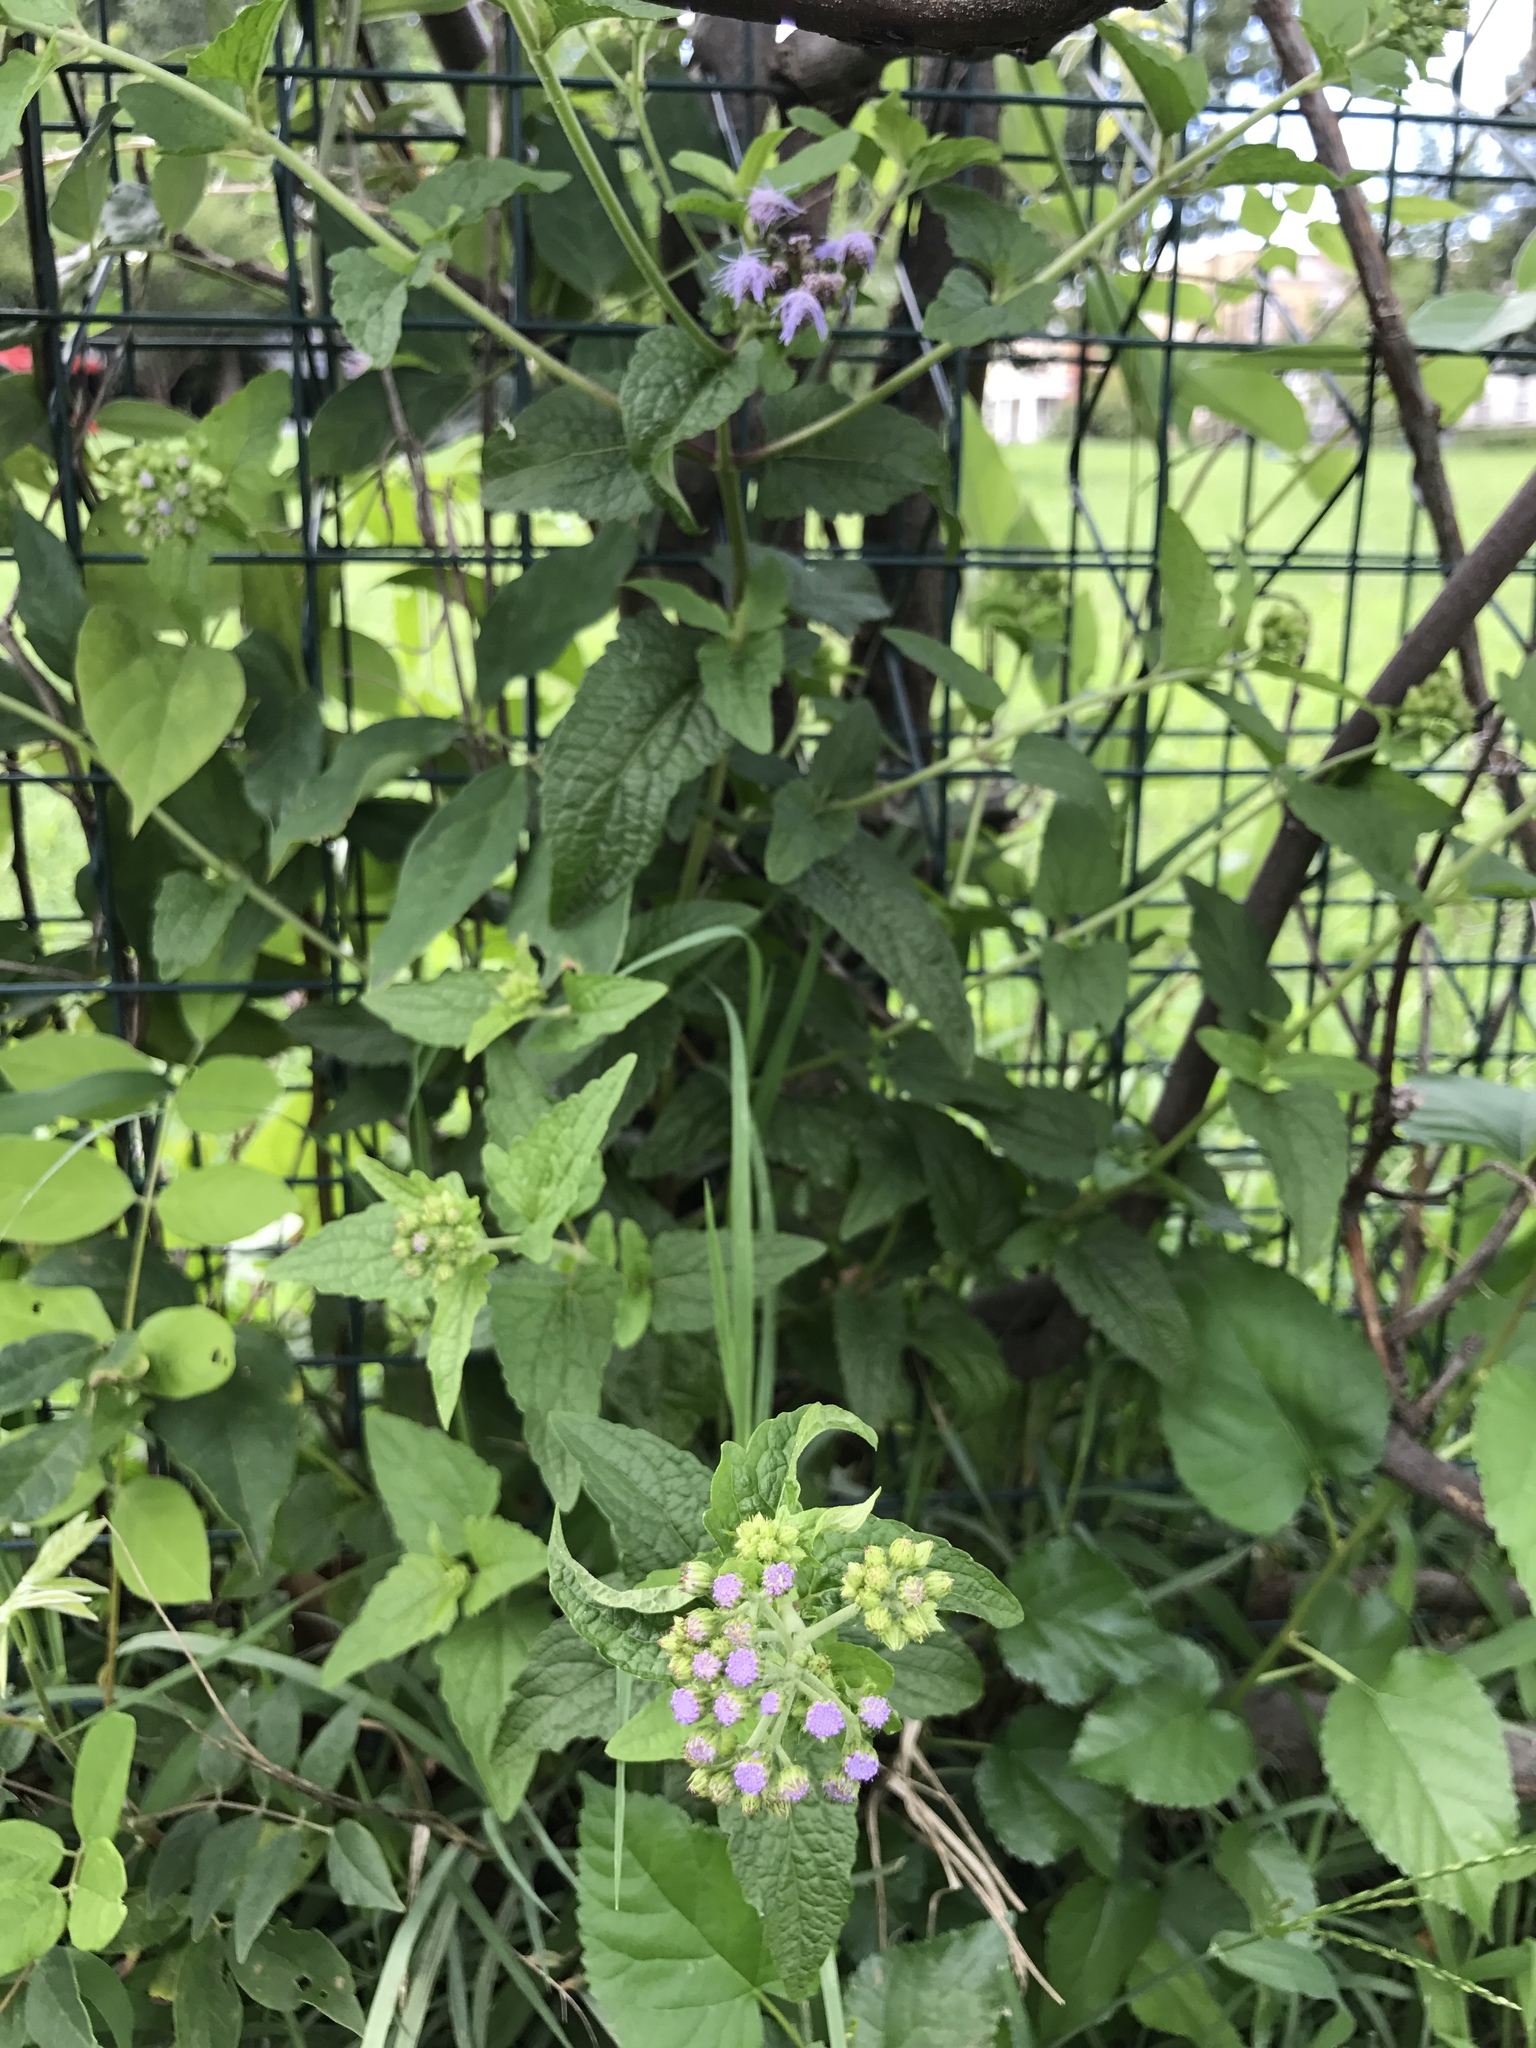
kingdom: Plantae
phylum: Tracheophyta
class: Magnoliopsida
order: Asterales
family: Asteraceae
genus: Conoclinium
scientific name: Conoclinium coelestinum
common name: Blue mistflower
